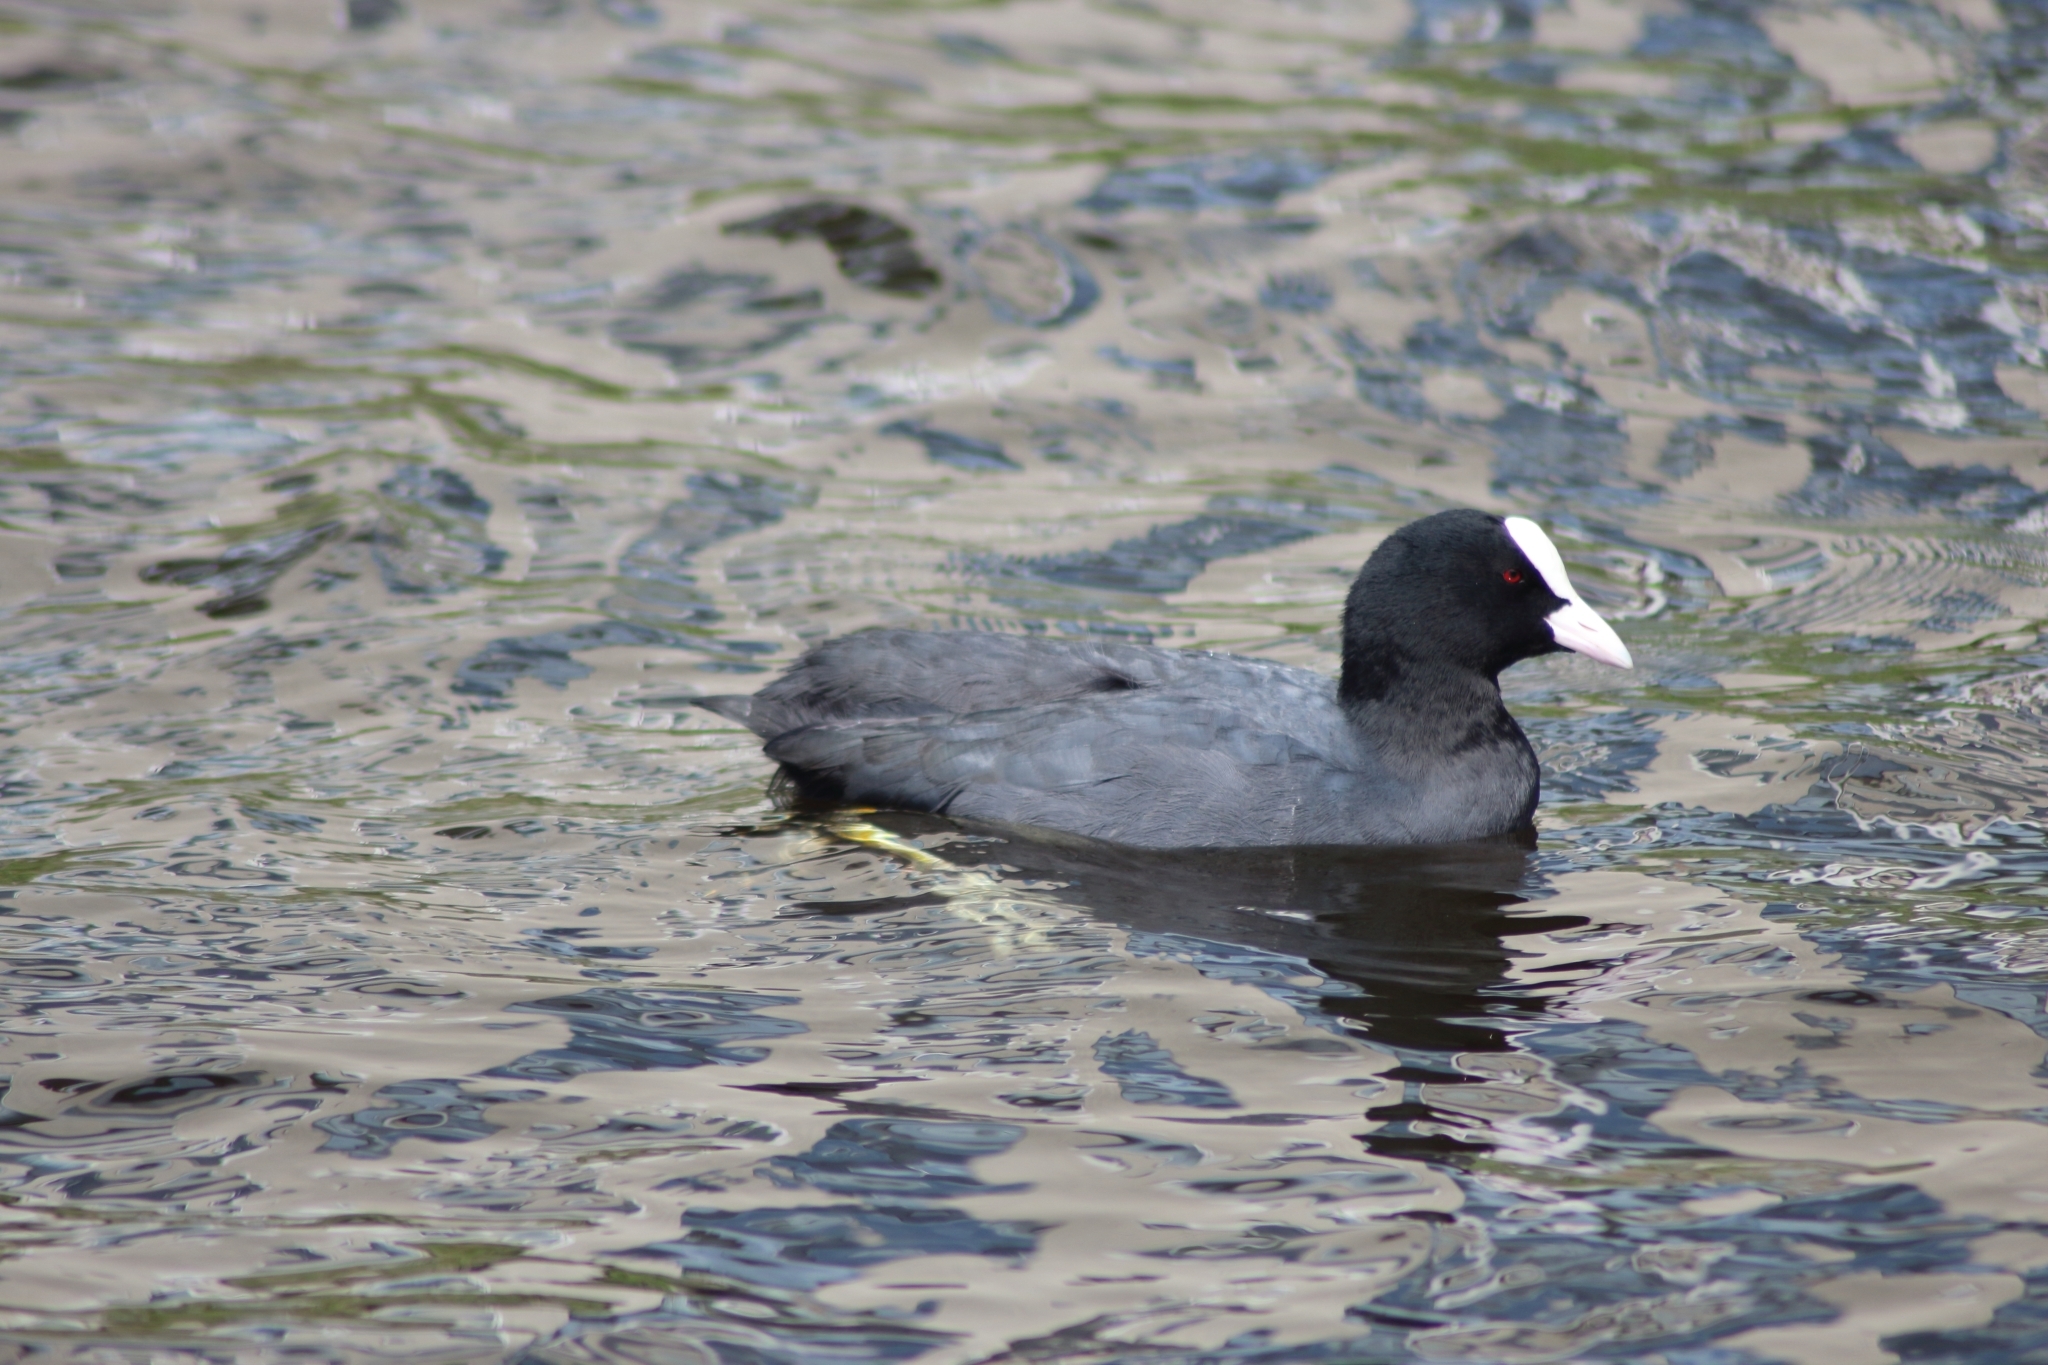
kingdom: Animalia
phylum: Chordata
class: Aves
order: Gruiformes
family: Rallidae
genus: Fulica
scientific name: Fulica atra
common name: Eurasian coot
